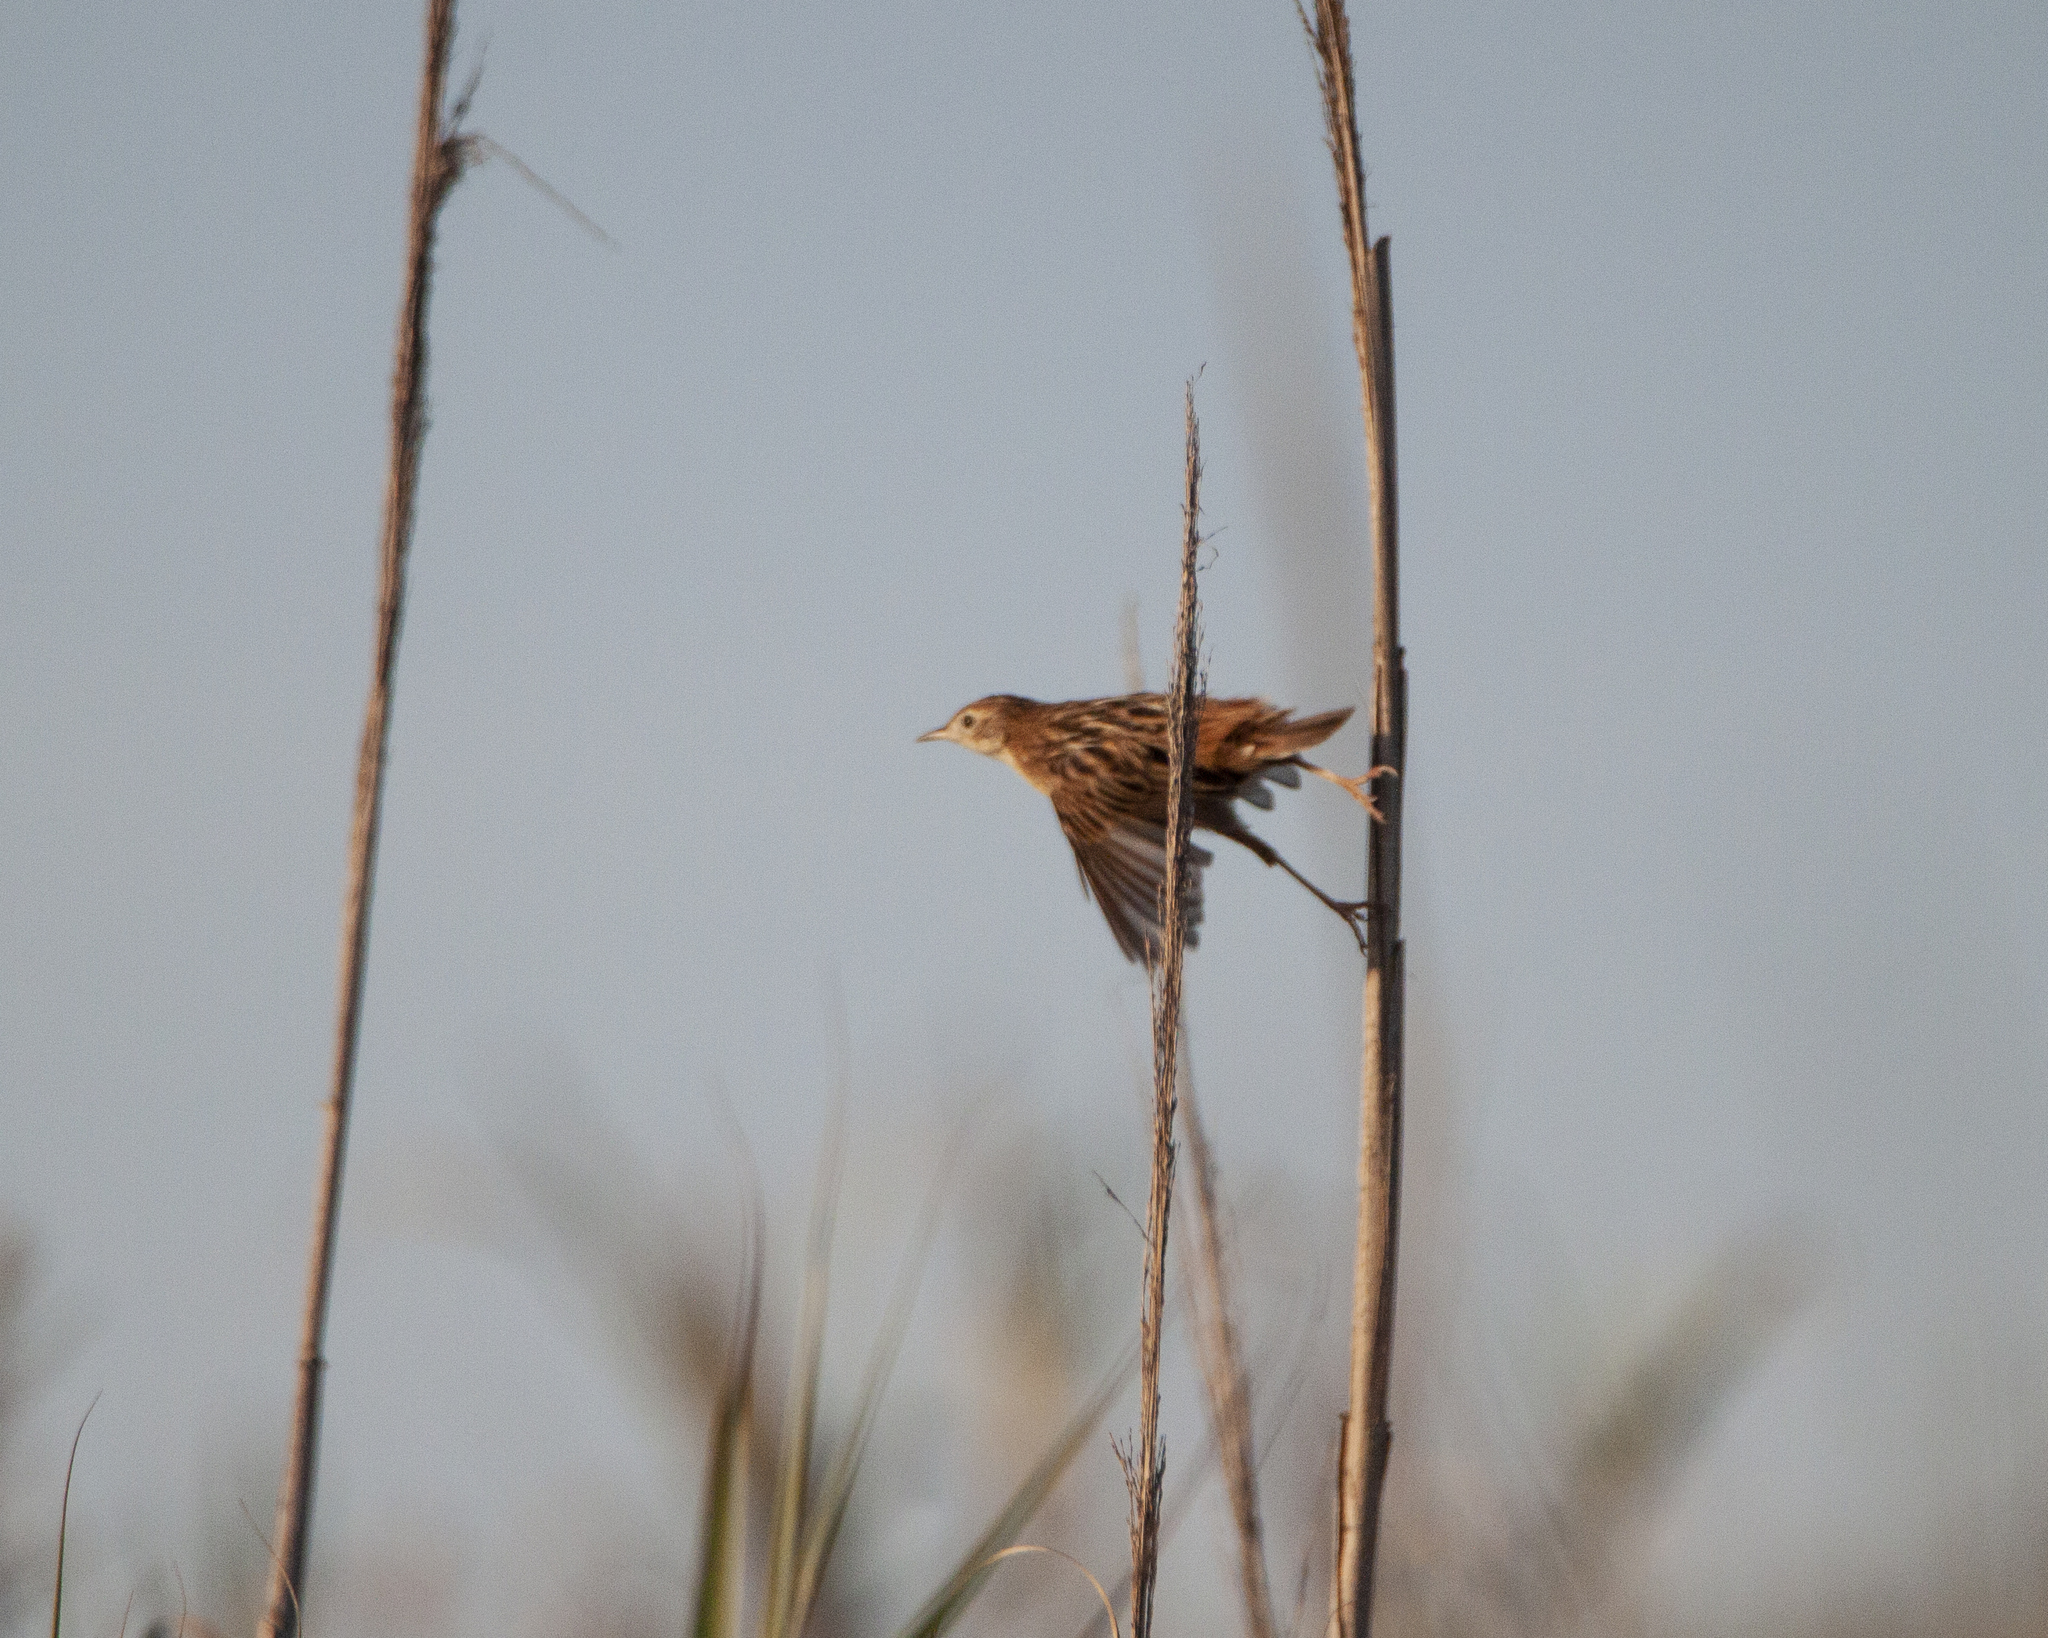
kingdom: Animalia
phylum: Chordata
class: Aves
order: Passeriformes
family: Cisticolidae
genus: Cisticola
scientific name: Cisticola juncidis
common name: Zitting cisticola
